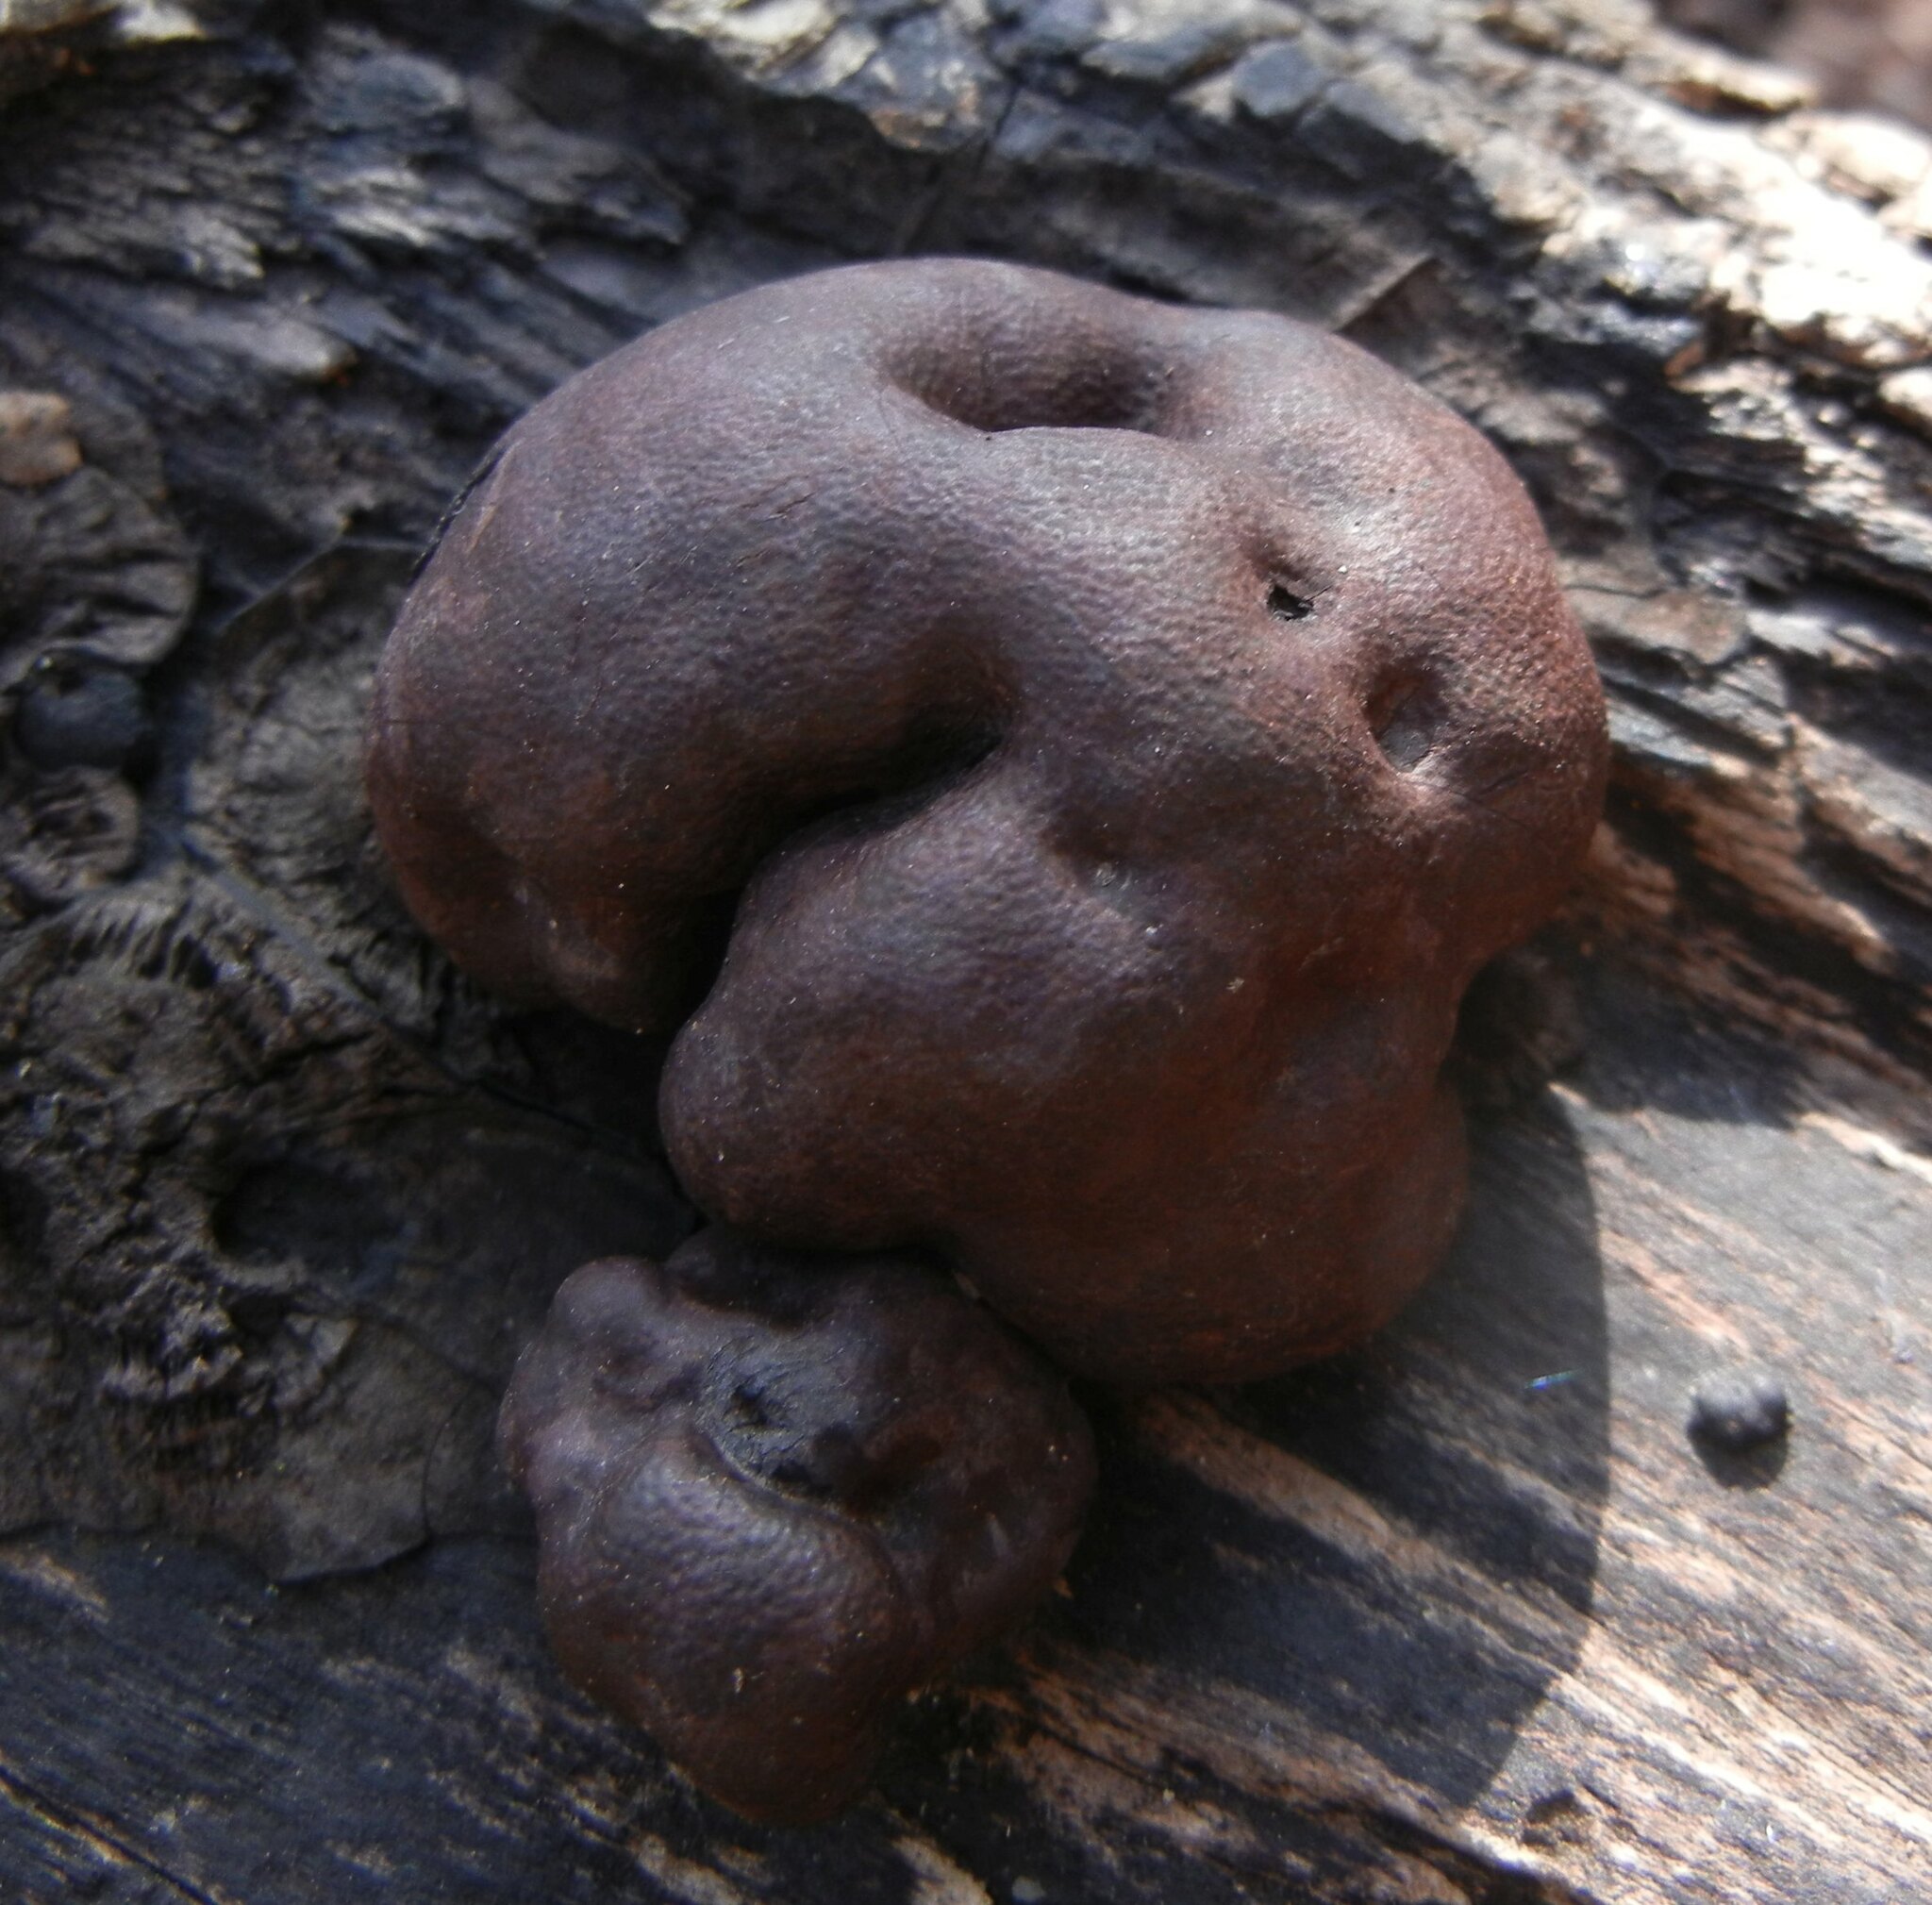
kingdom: Fungi
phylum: Ascomycota
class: Sordariomycetes
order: Xylariales
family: Hypoxylaceae
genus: Daldinia
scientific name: Daldinia concentrica
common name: Cramp balls
